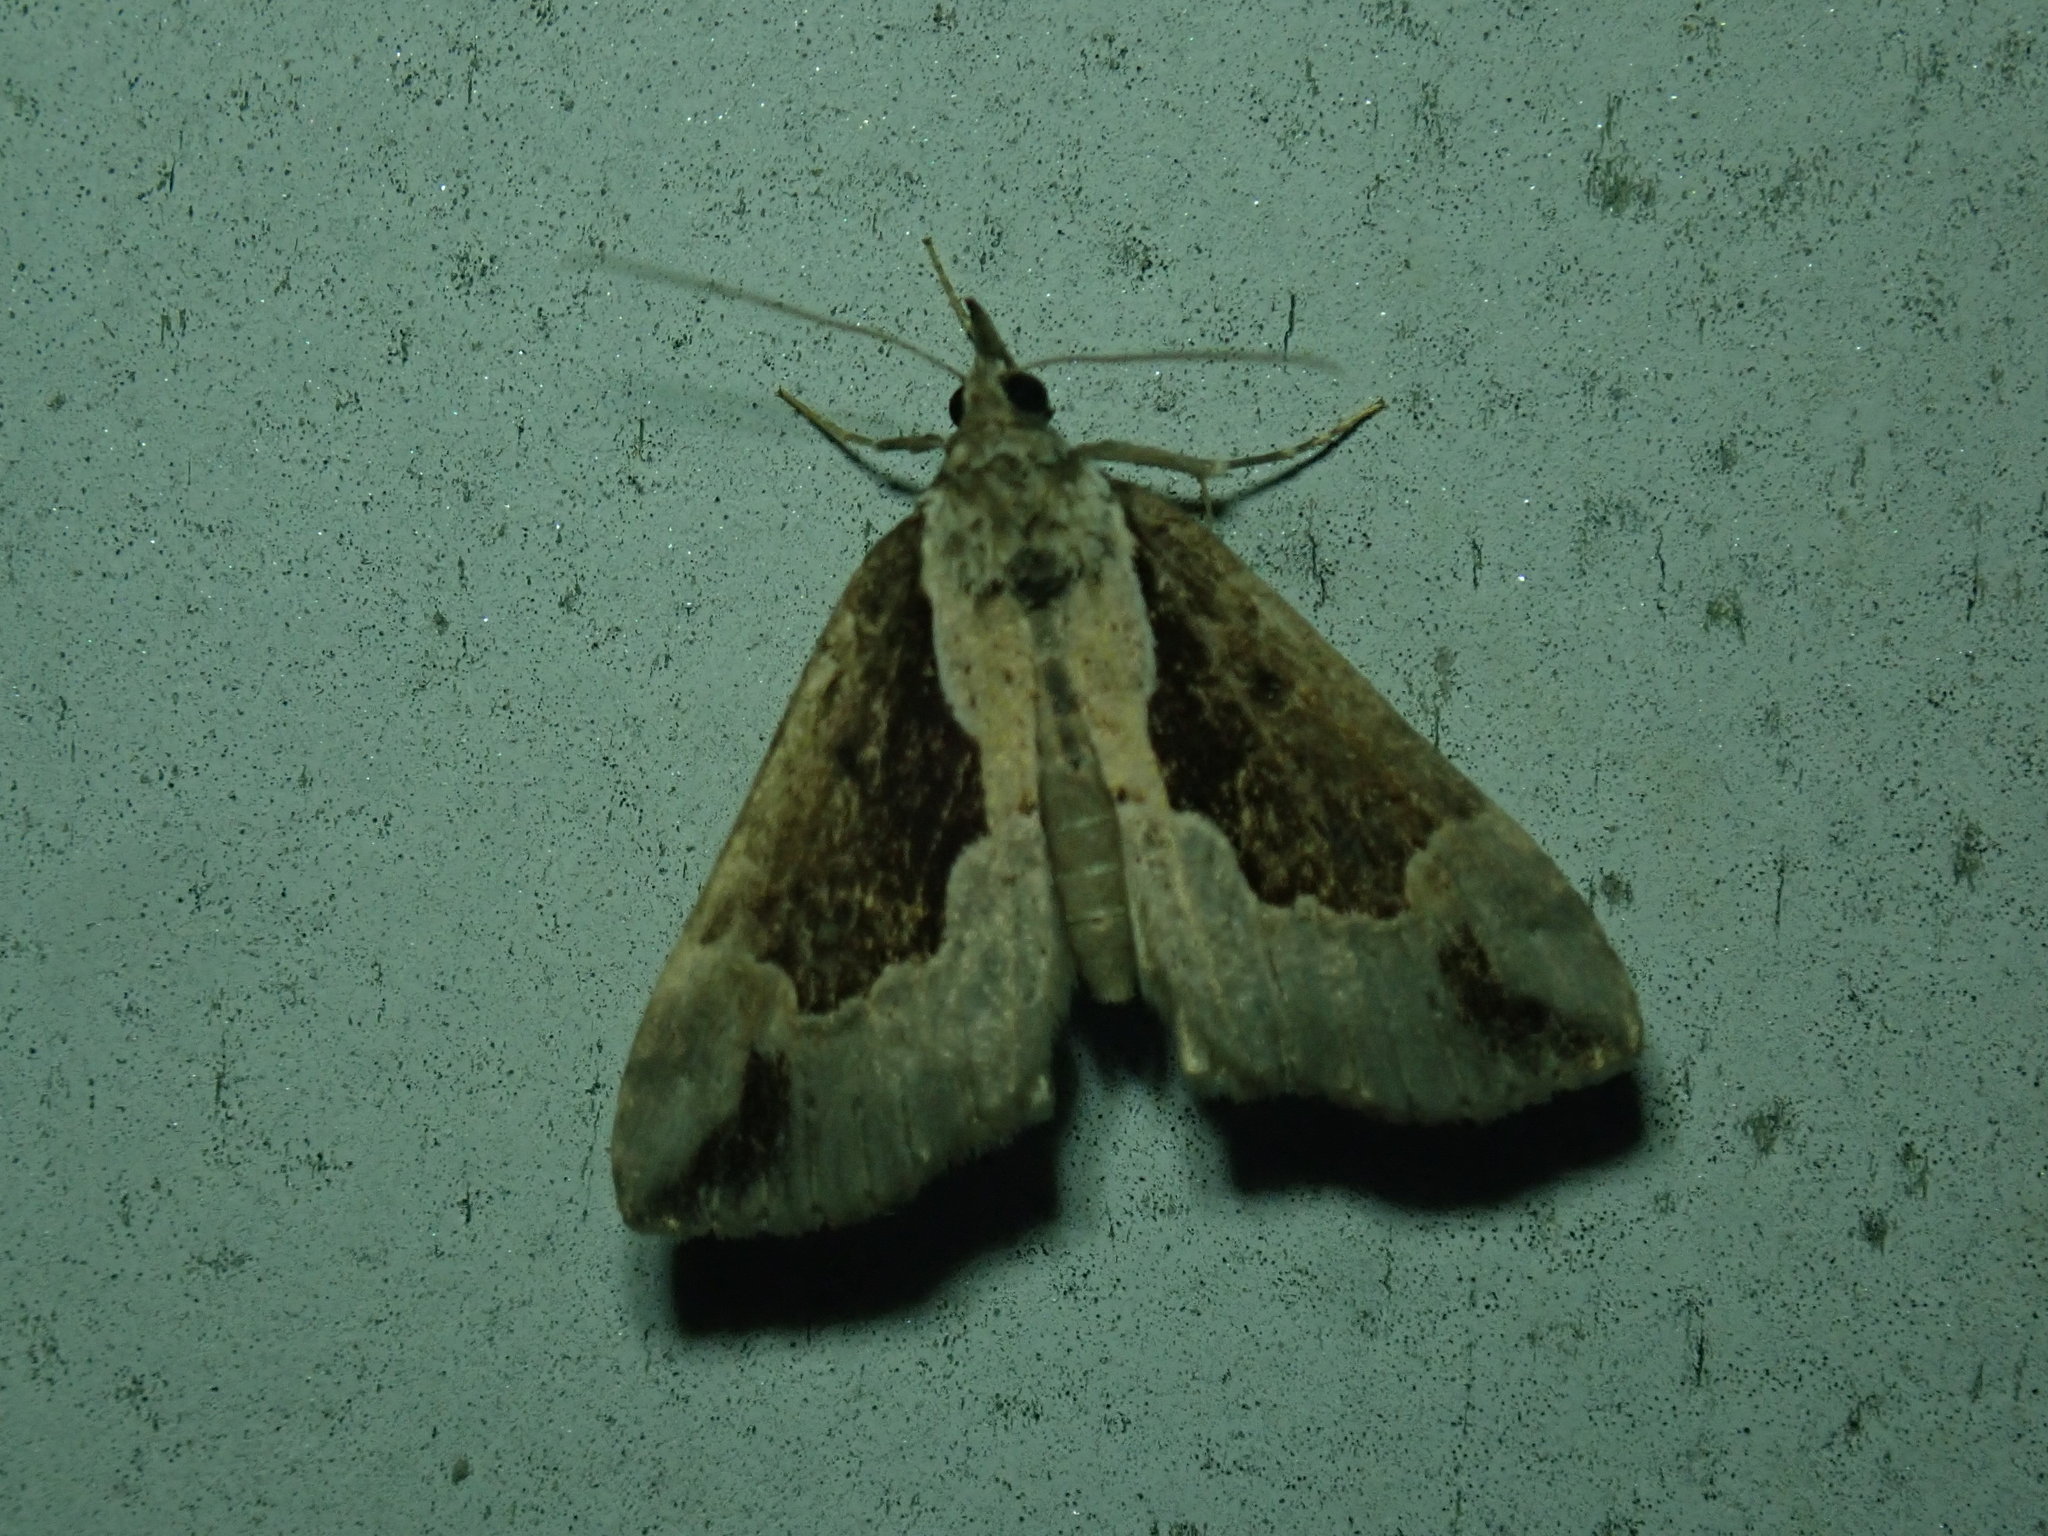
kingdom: Animalia
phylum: Arthropoda
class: Insecta
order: Lepidoptera
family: Erebidae
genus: Hypena
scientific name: Hypena baltimoralis
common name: Baltimore snout
